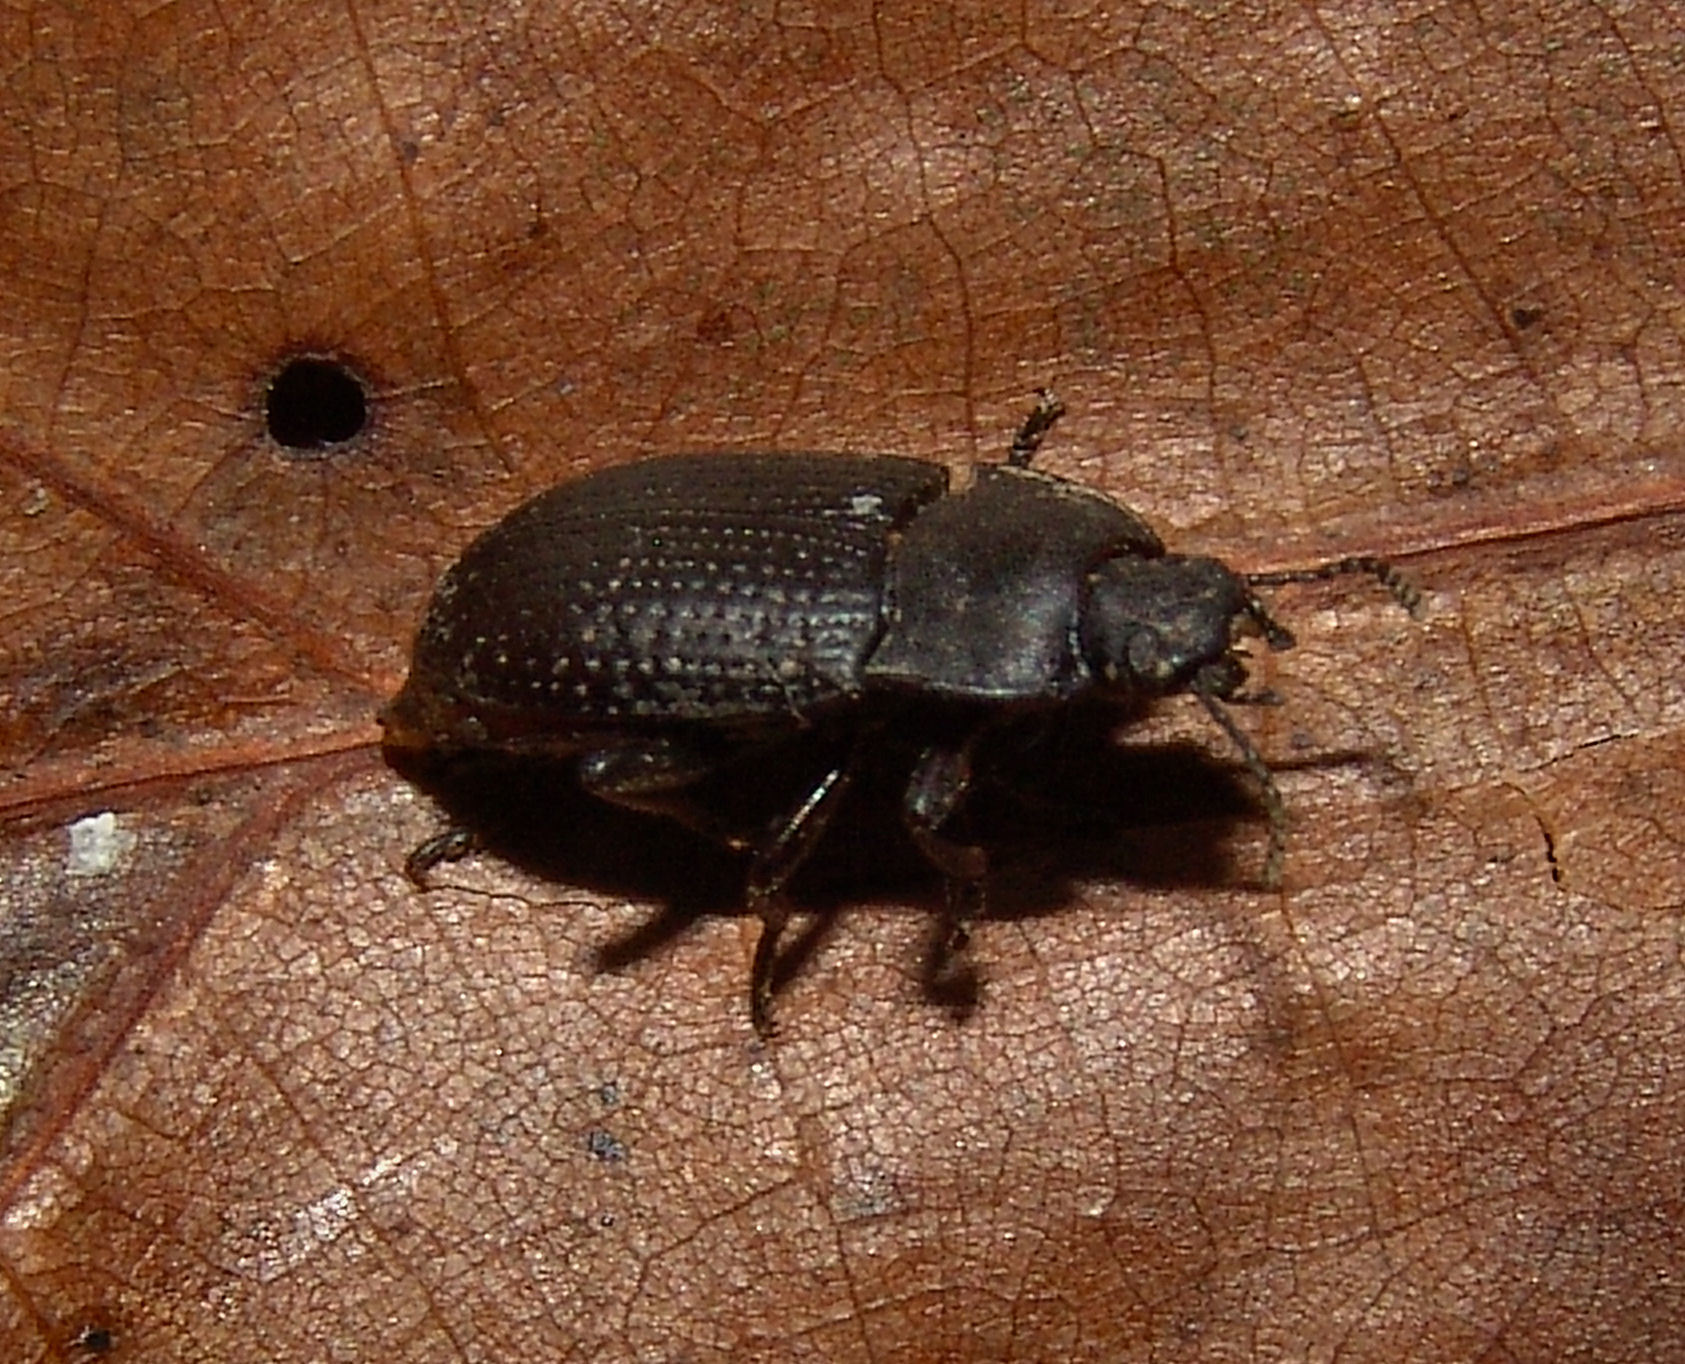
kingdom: Animalia
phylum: Arthropoda
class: Insecta
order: Coleoptera
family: Tenebrionidae
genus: Asiopus
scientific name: Asiopus
